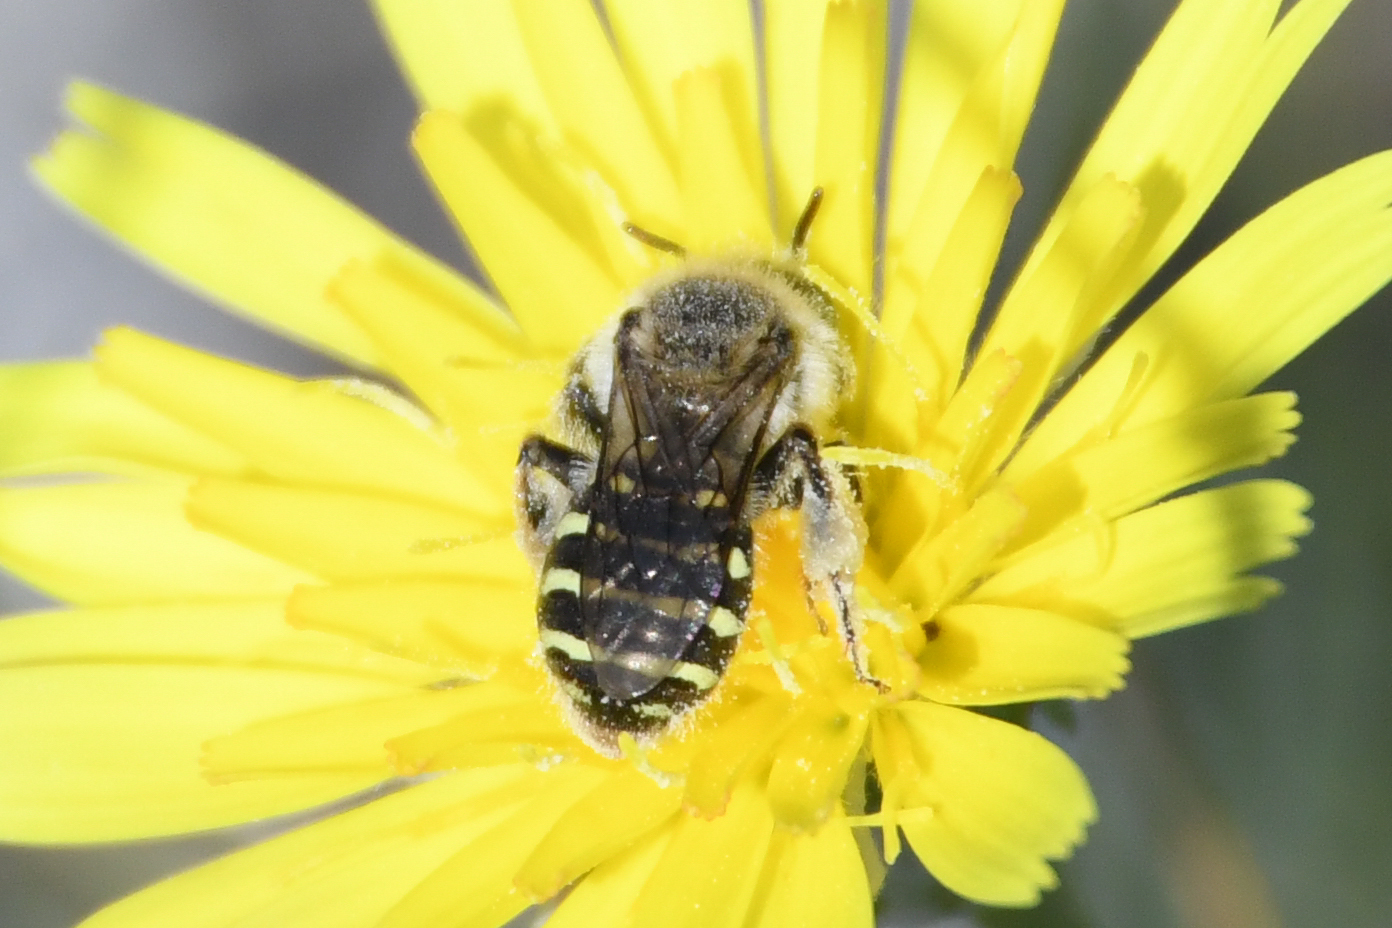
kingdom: Animalia
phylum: Arthropoda
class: Insecta
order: Hymenoptera
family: Andrenidae
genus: Calliopsis
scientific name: Calliopsis puellae
